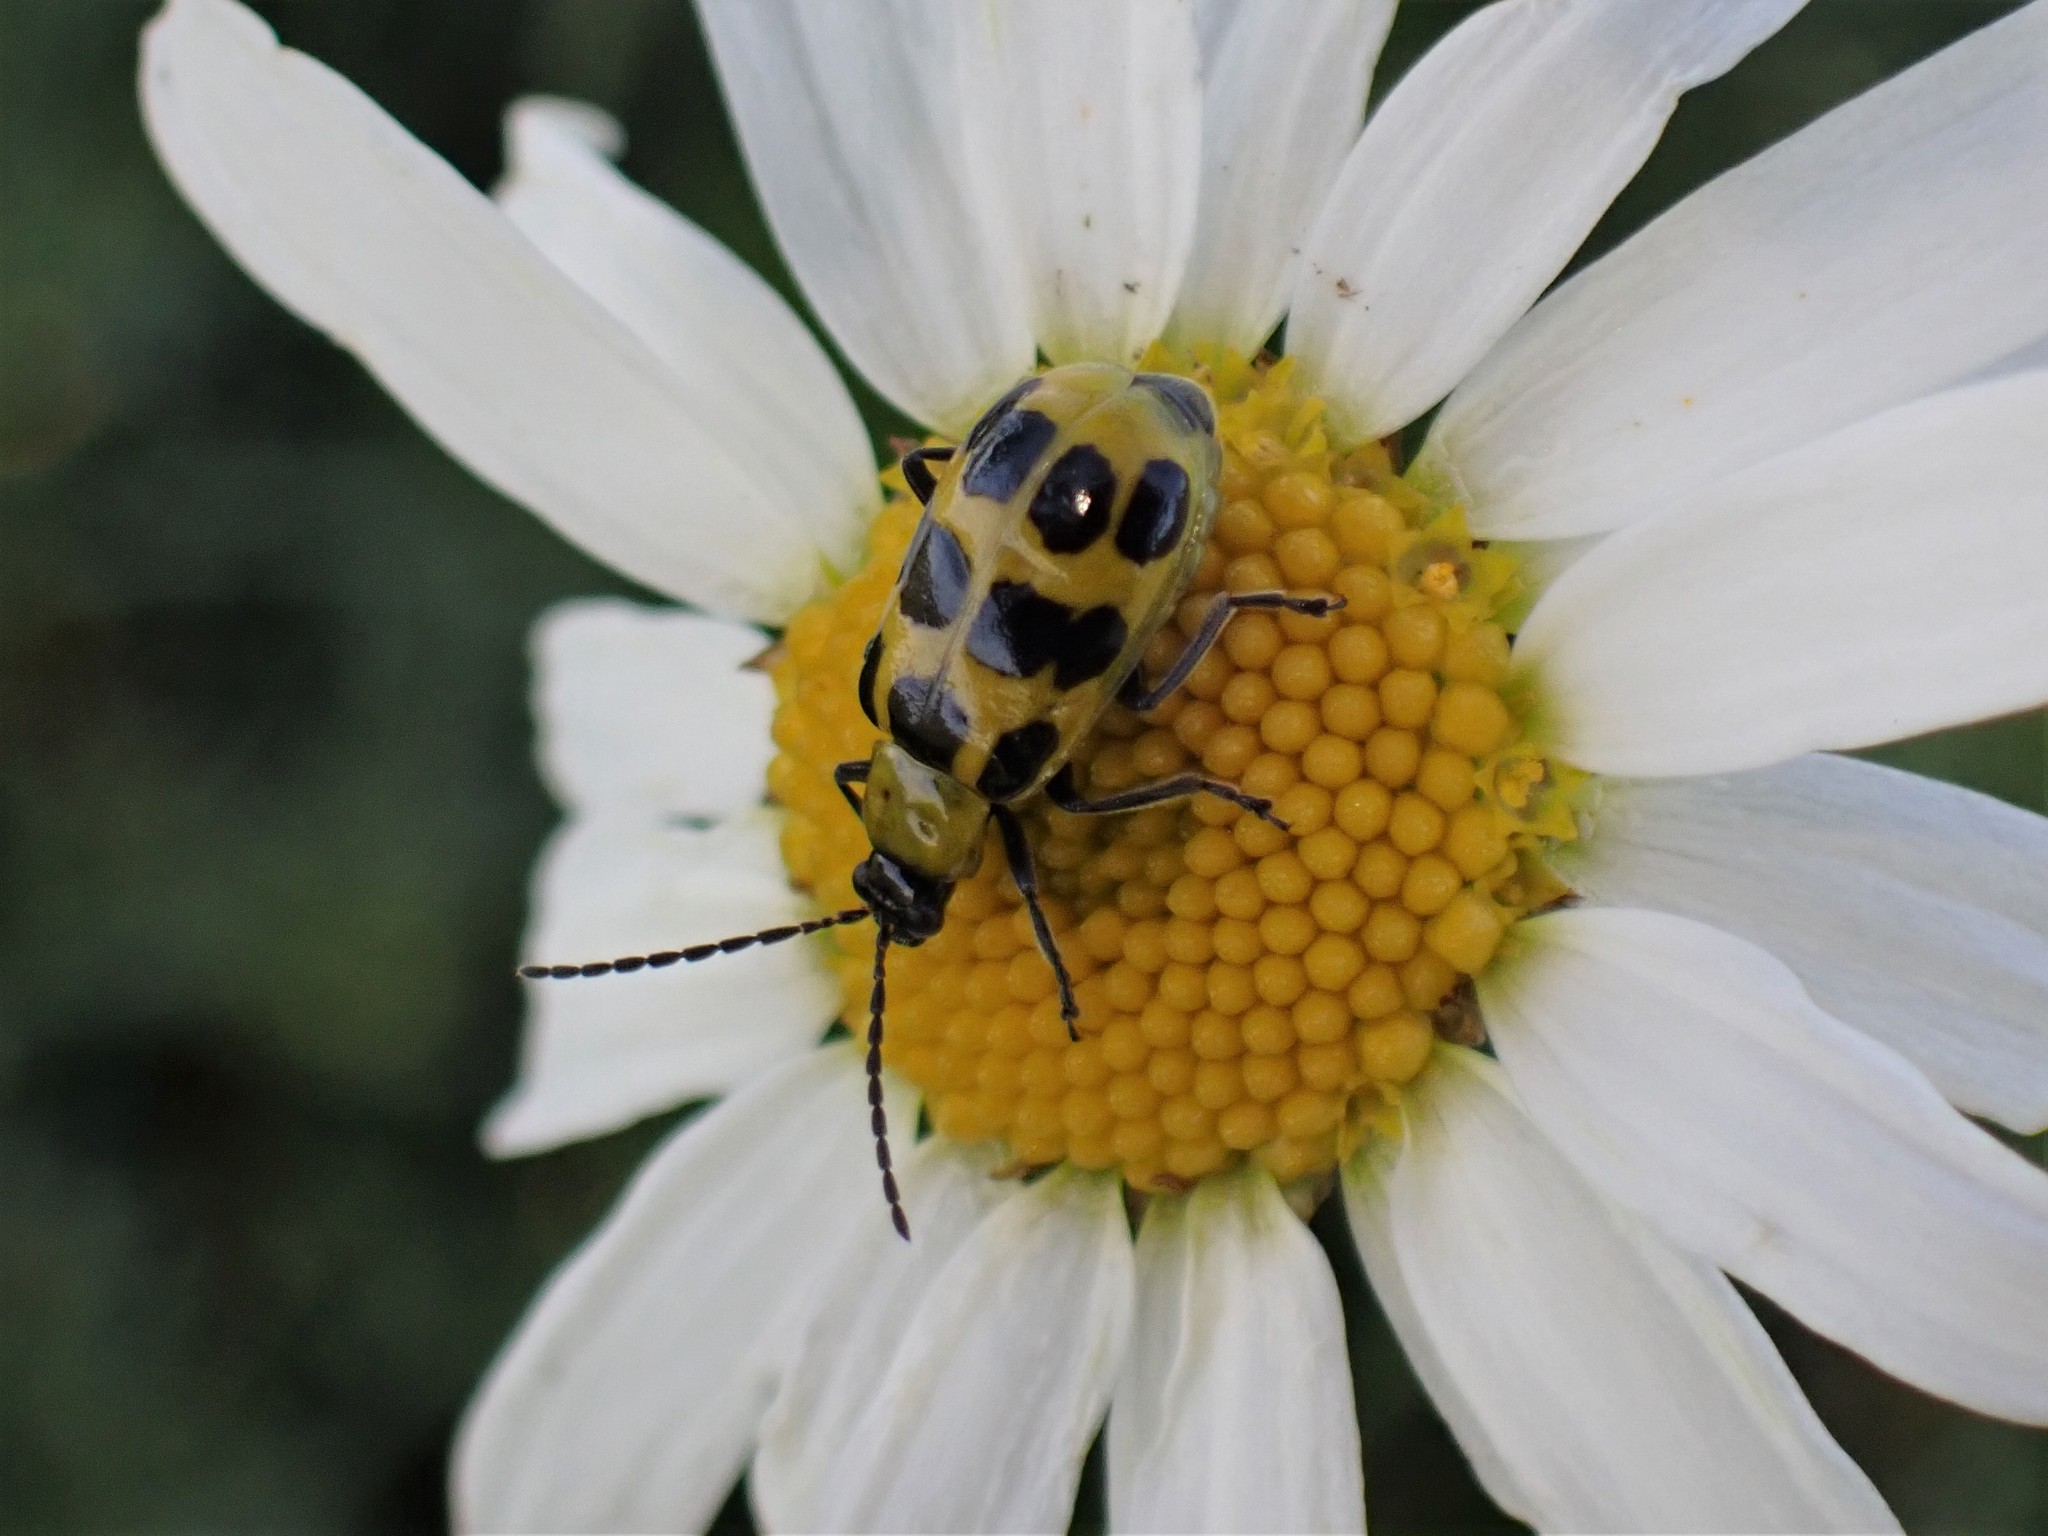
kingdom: Animalia
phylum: Arthropoda
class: Insecta
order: Coleoptera
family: Chrysomelidae
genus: Diabrotica
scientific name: Diabrotica undecimpunctata
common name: Spotted cucumber beetle
